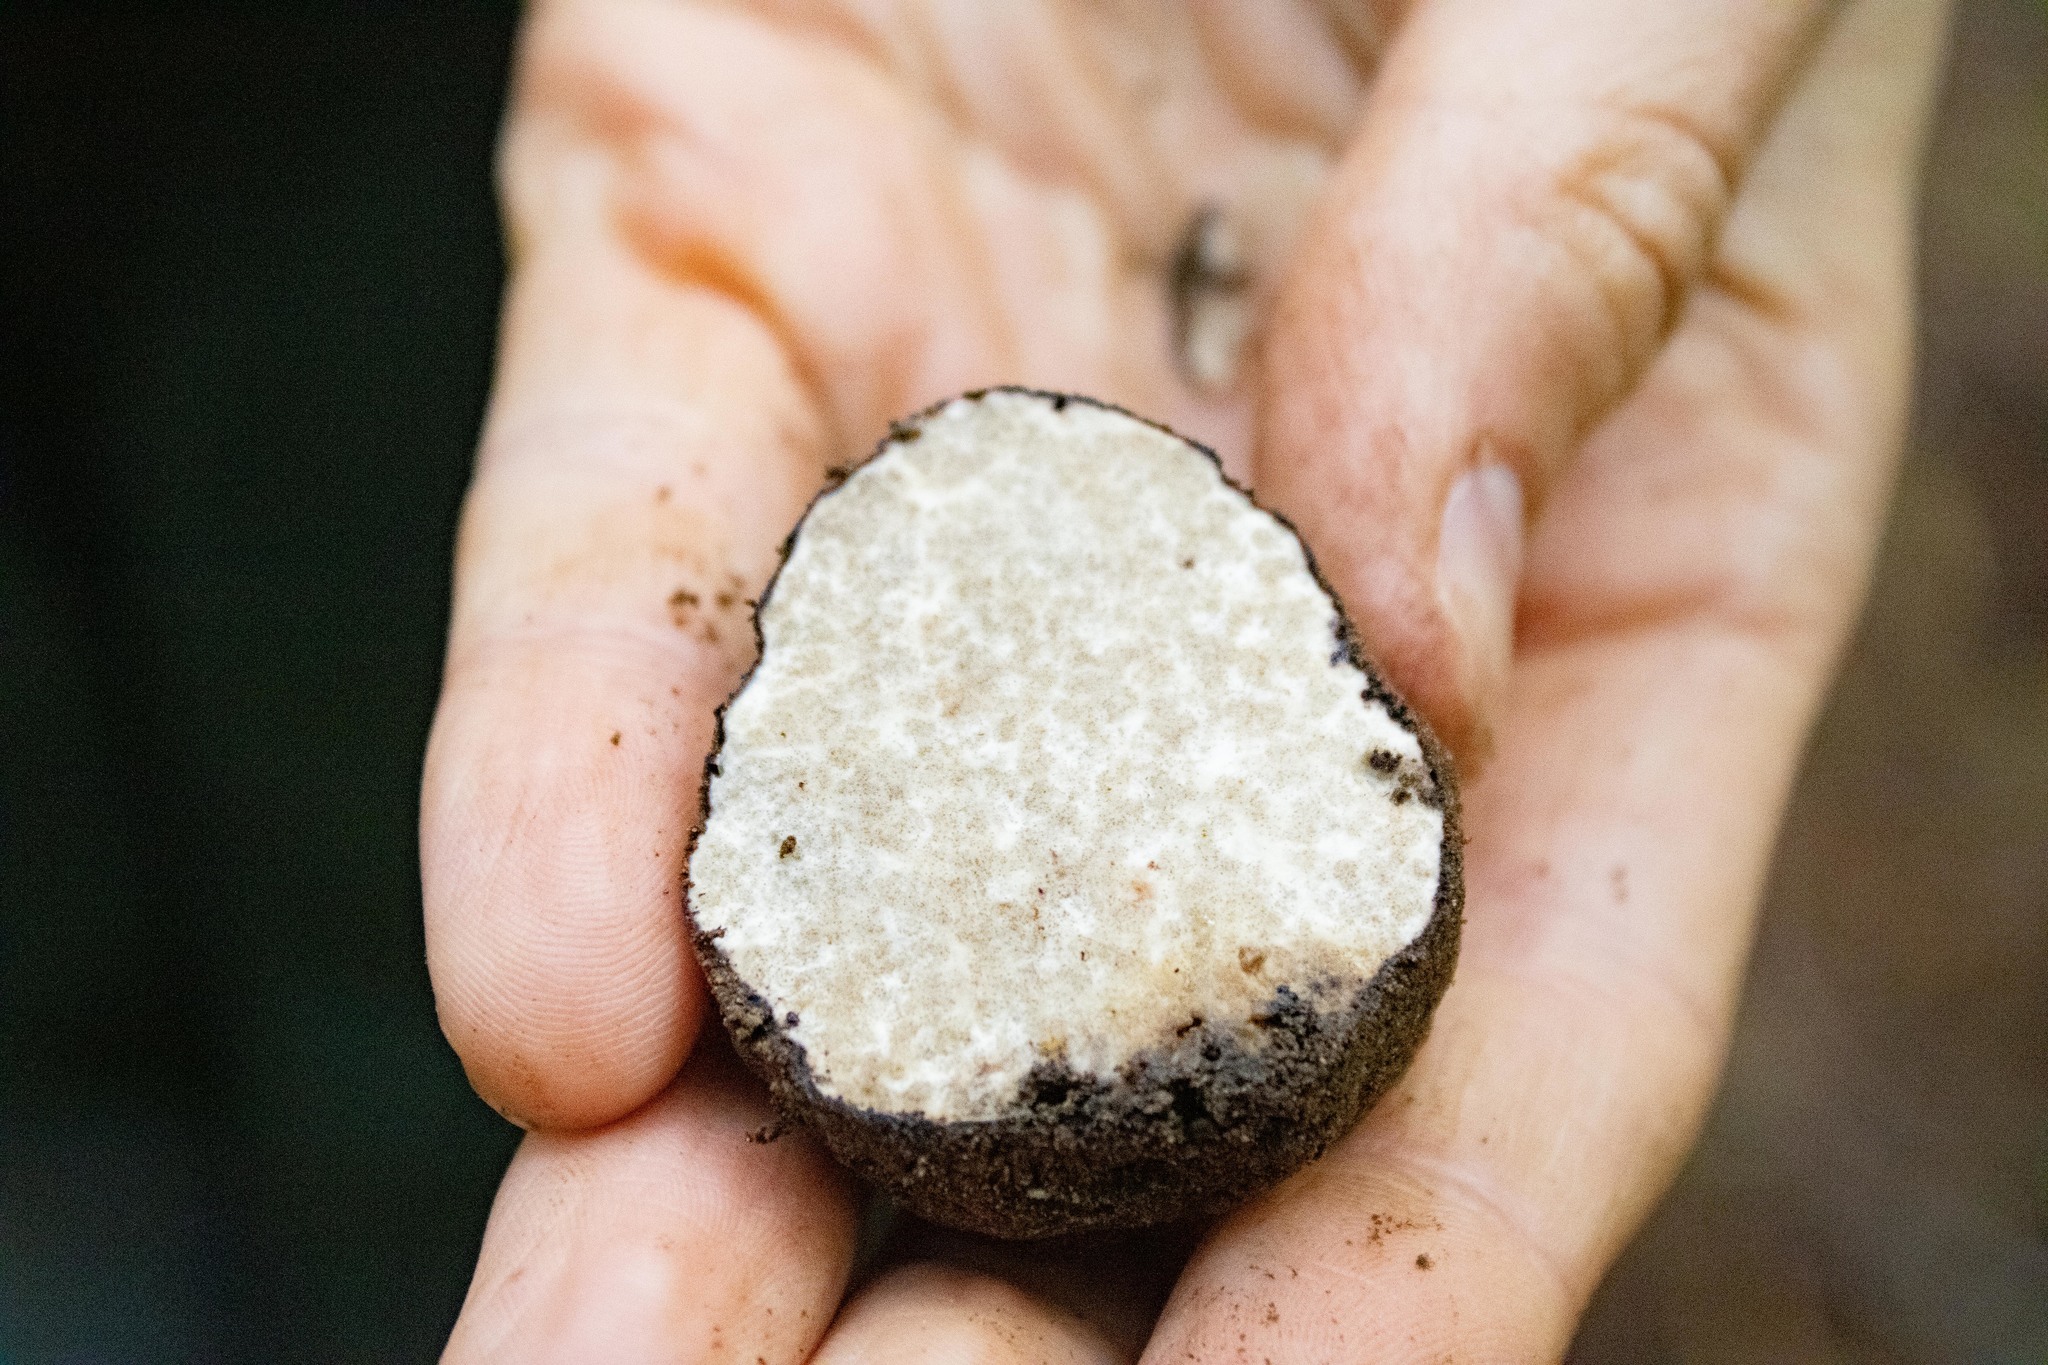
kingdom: Fungi
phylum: Ascomycota
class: Pezizomycetes
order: Pezizales
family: Morchellaceae
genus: Leucangium
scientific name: Leucangium carthusianum
